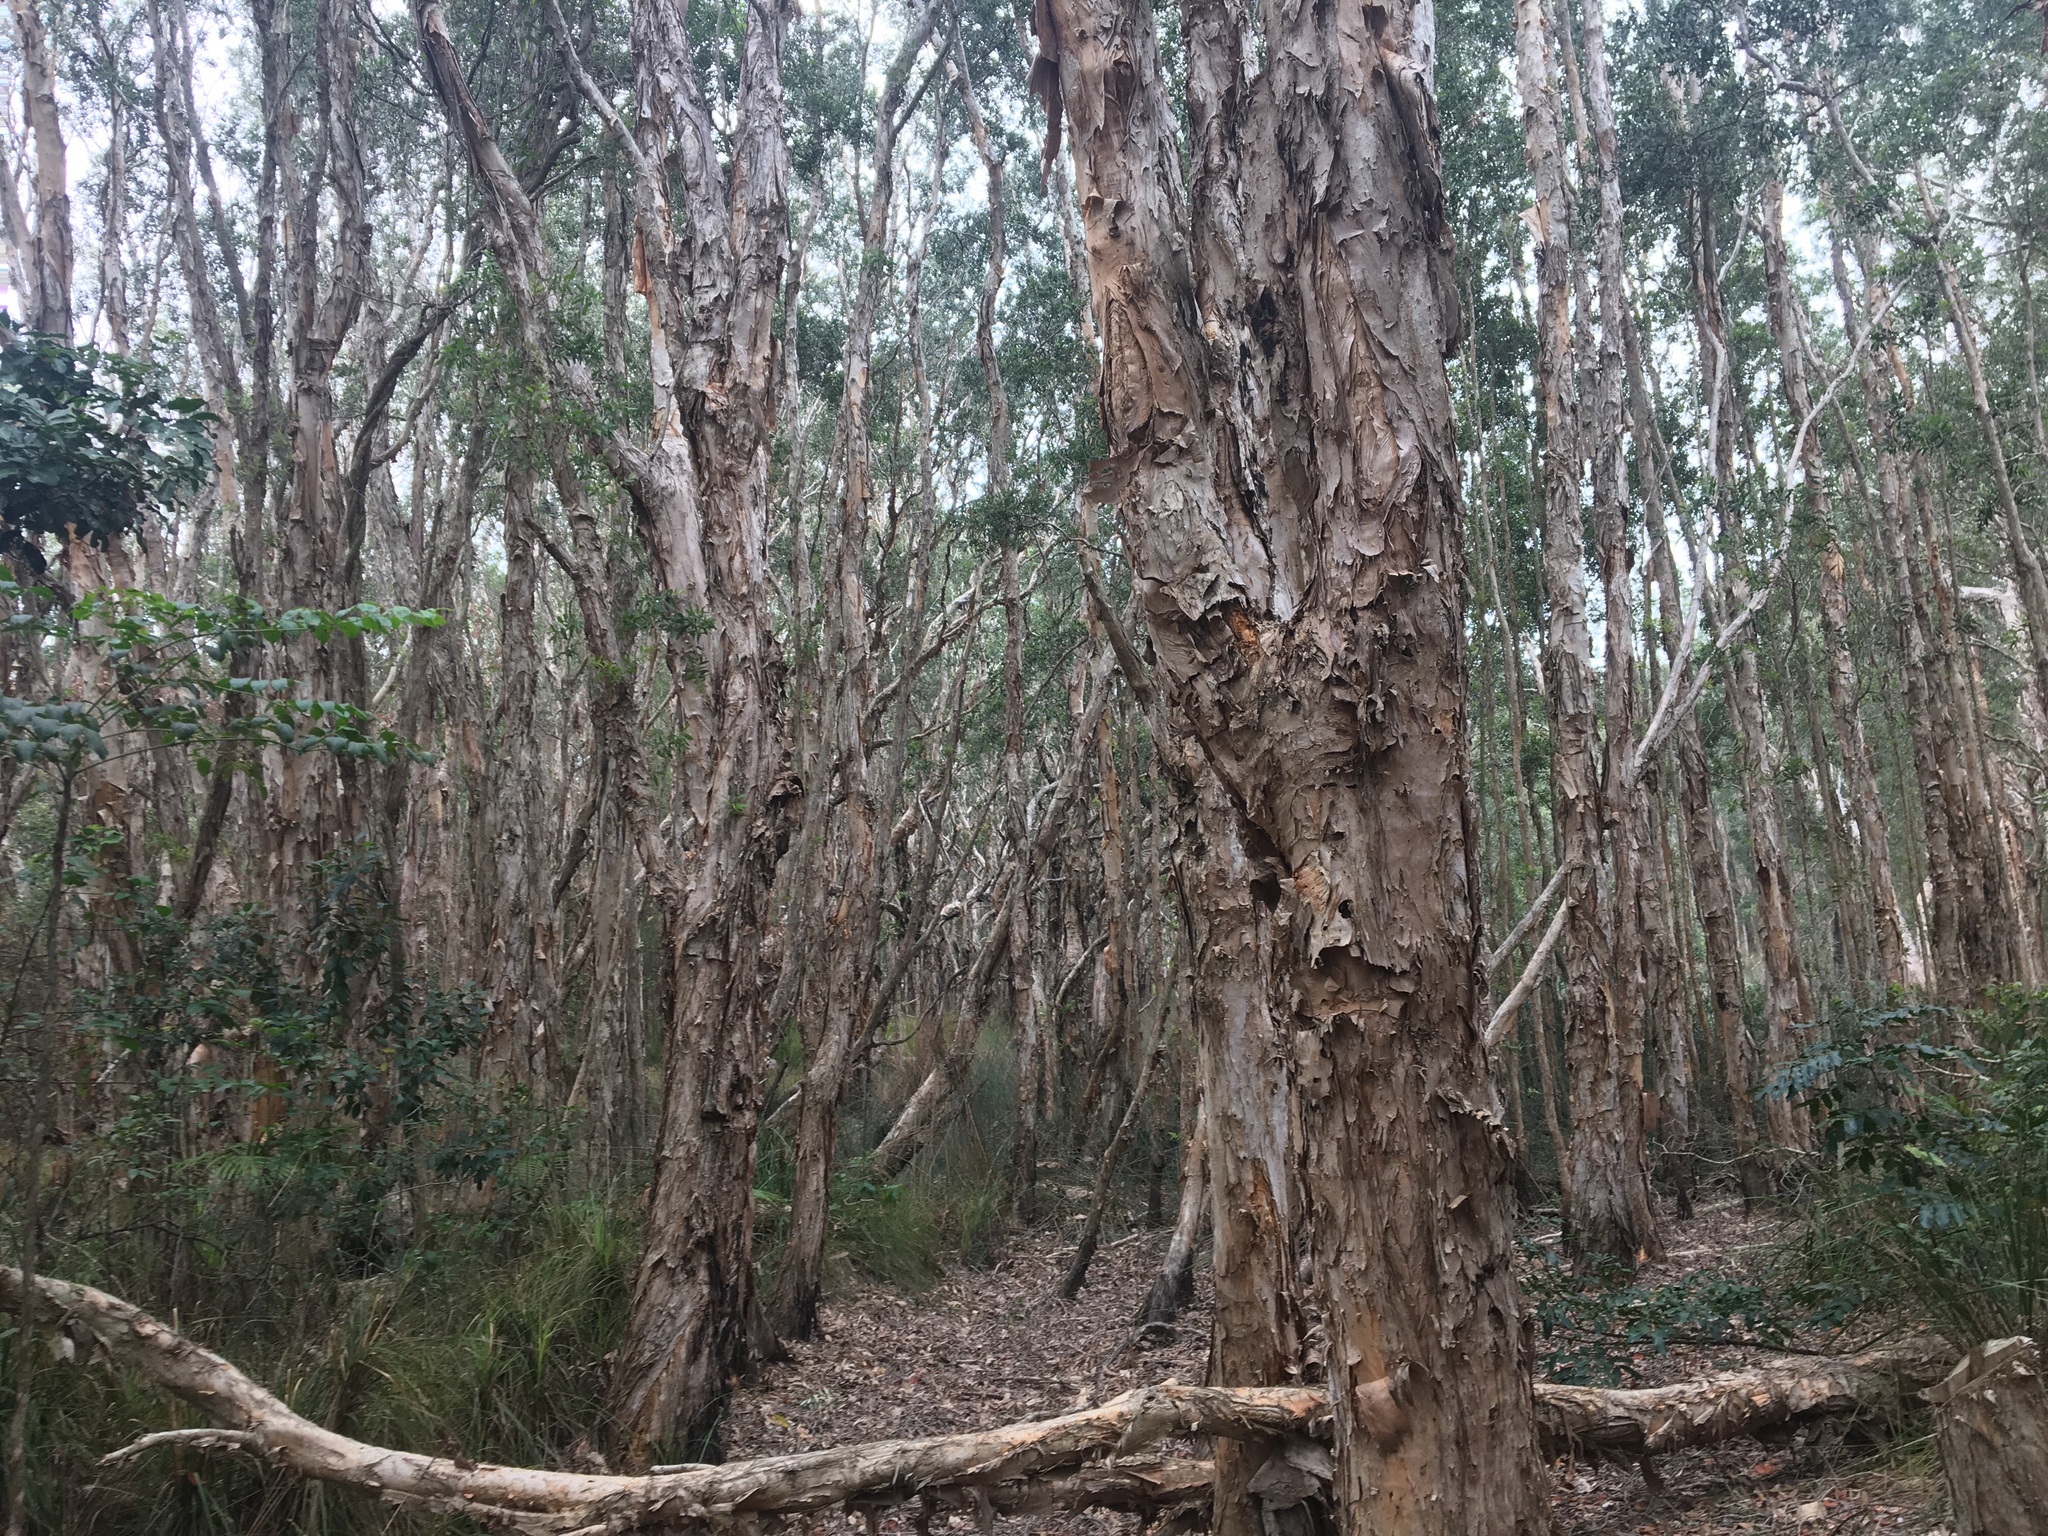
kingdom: Plantae
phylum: Tracheophyta
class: Magnoliopsida
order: Myrtales
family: Myrtaceae
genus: Melaleuca
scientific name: Melaleuca quinquenervia
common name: Punktree
